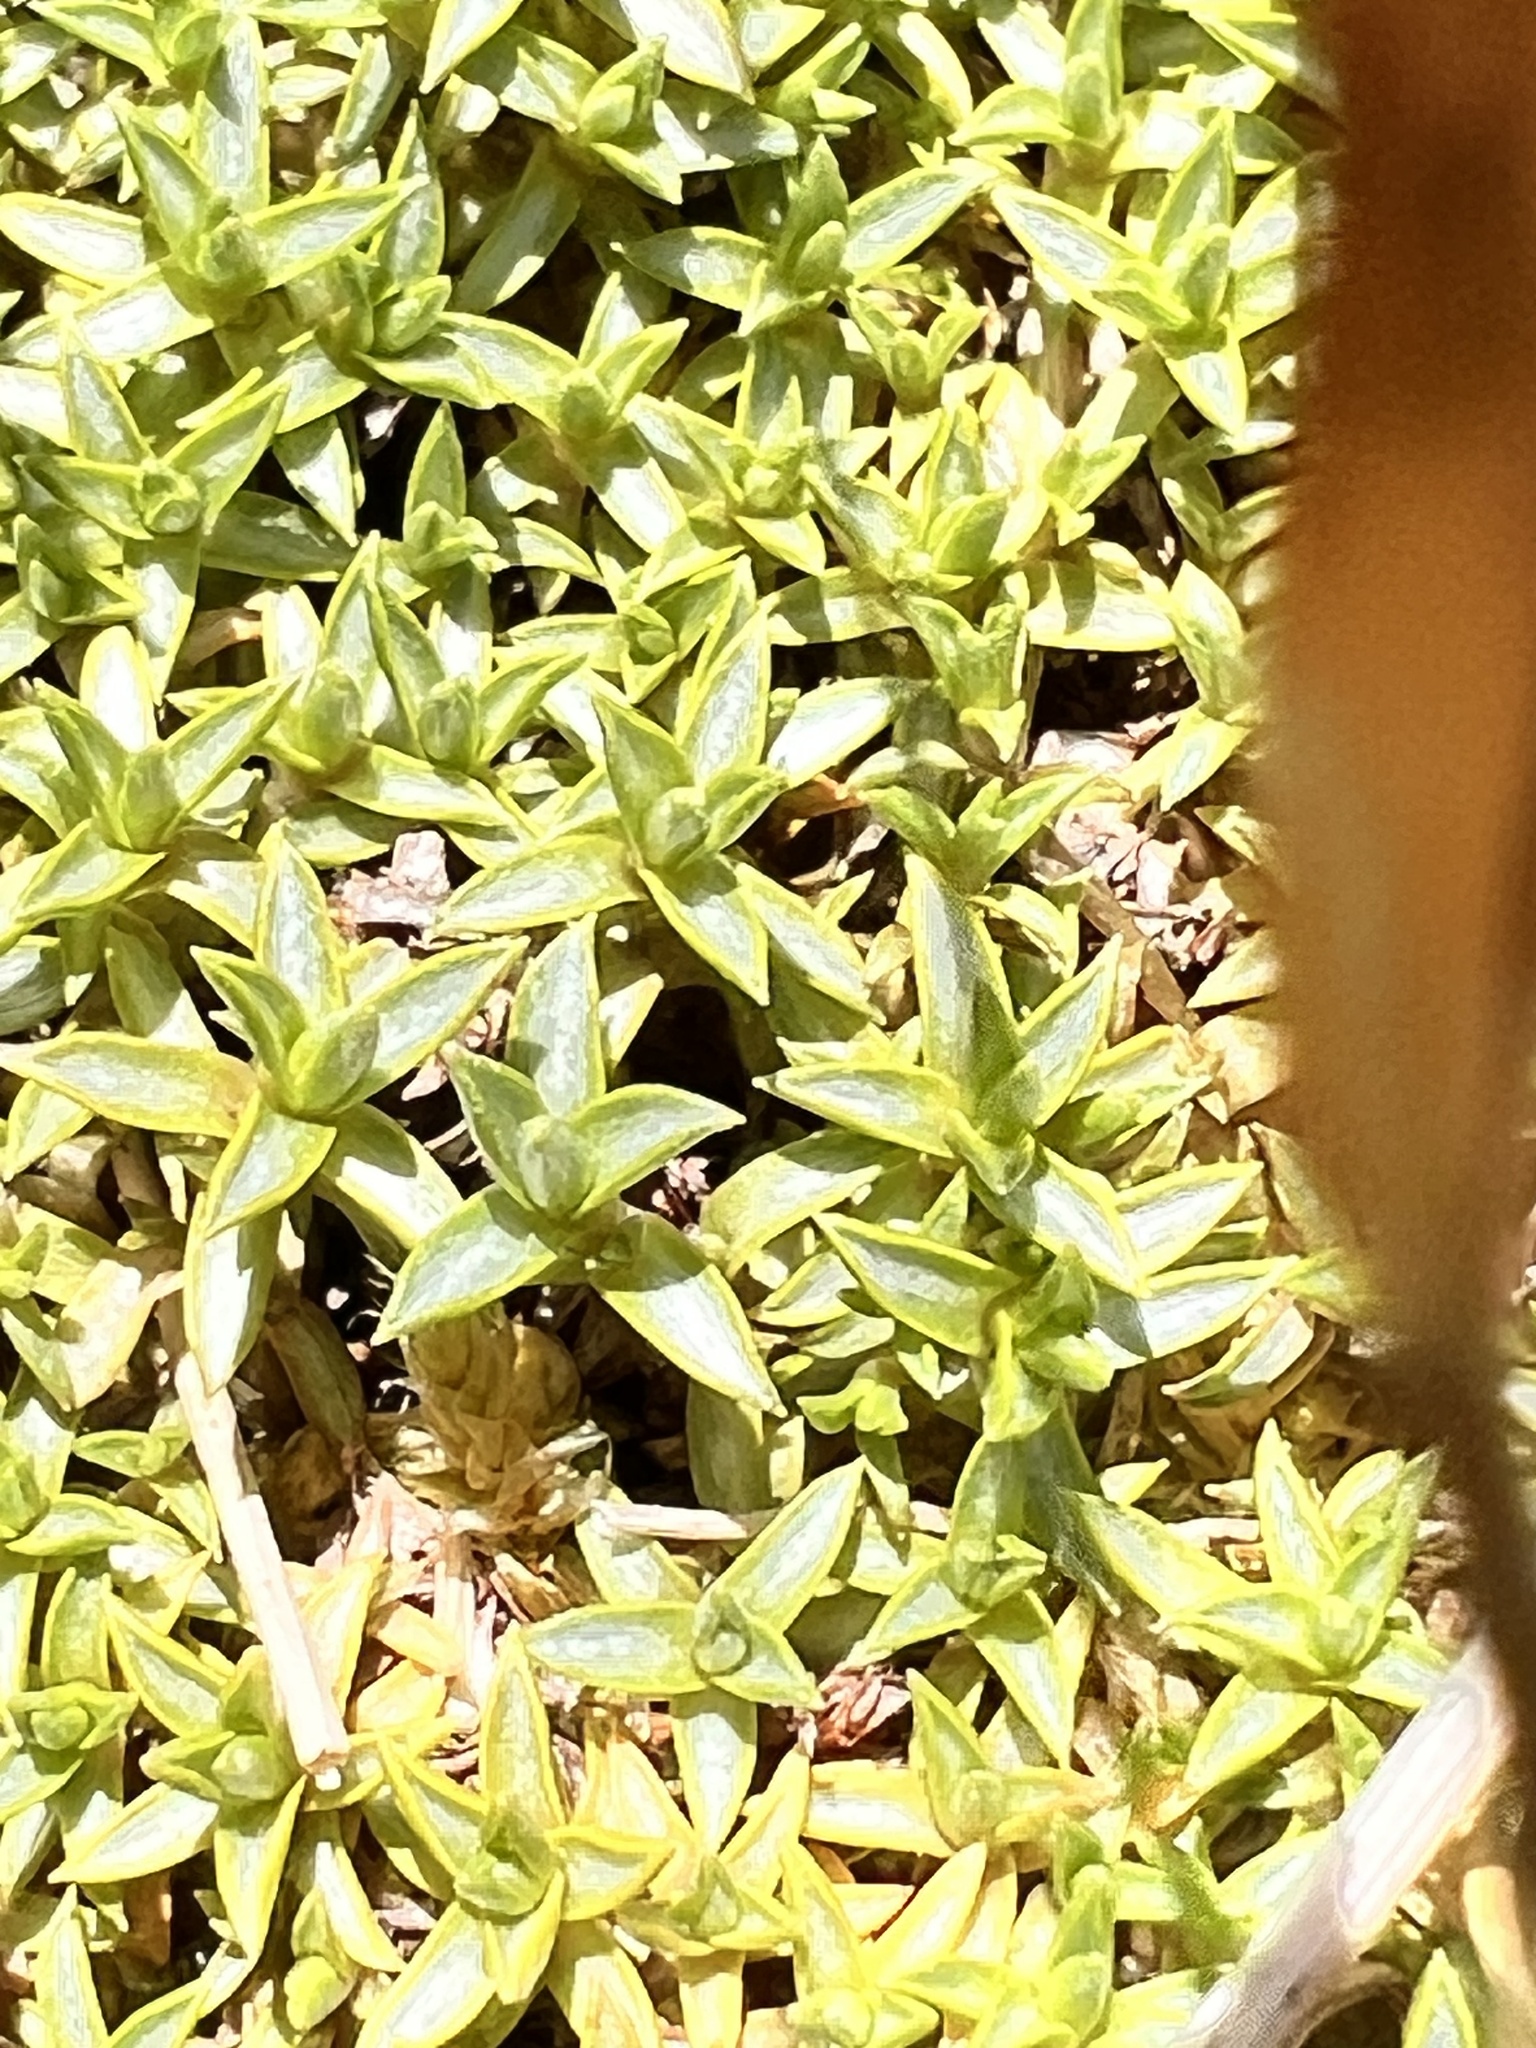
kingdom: Plantae
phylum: Tracheophyta
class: Magnoliopsida
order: Asterales
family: Asteraceae
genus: Raoulia
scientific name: Raoulia tenuicaulis
